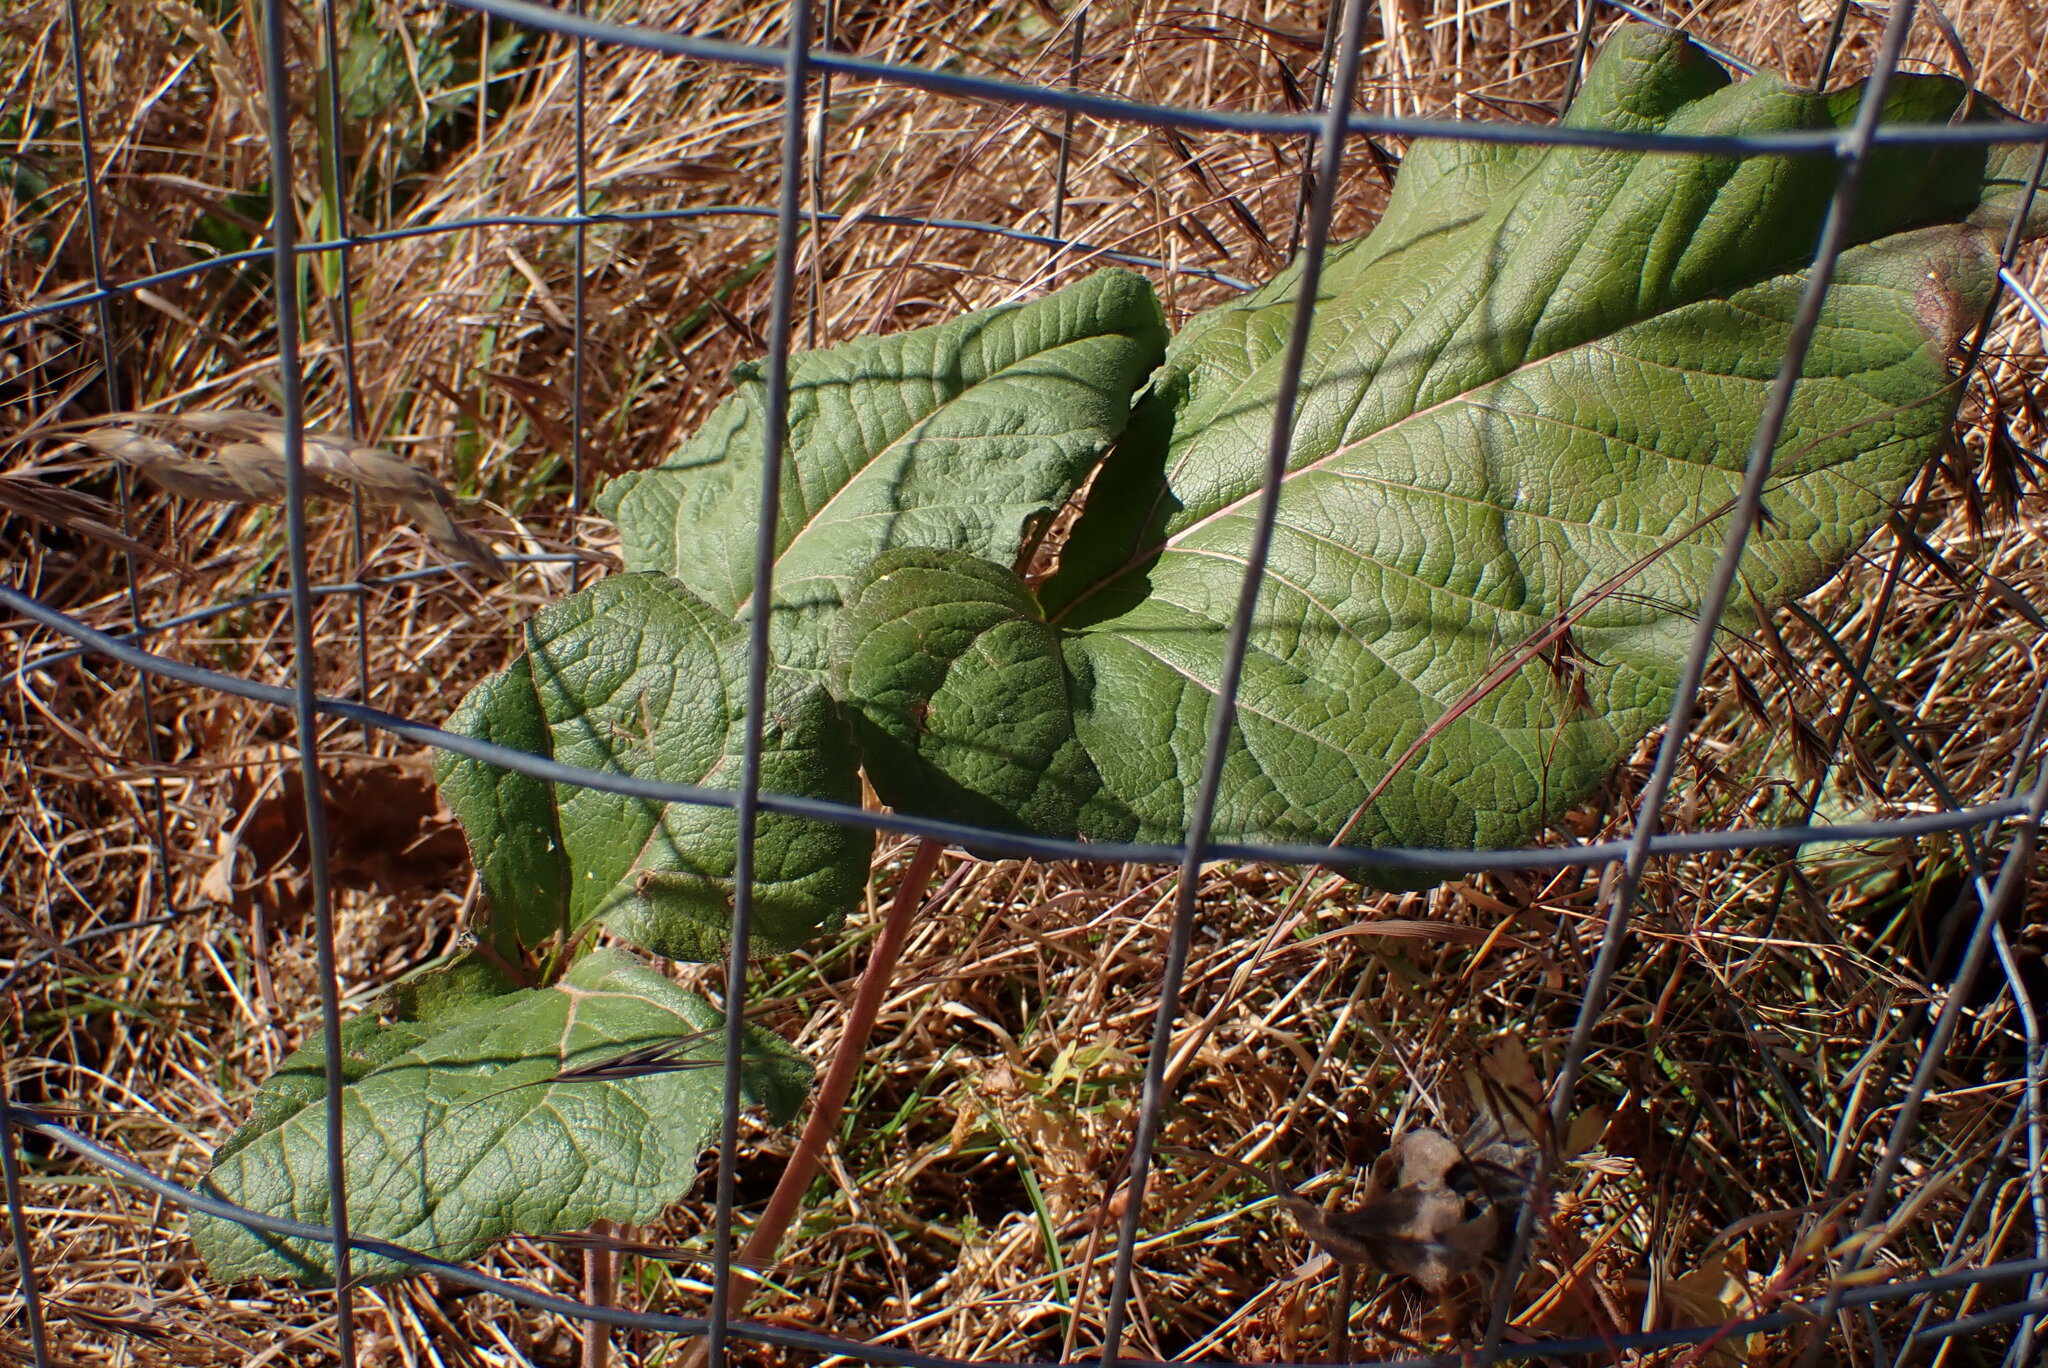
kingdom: Plantae
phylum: Tracheophyta
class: Magnoliopsida
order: Asterales
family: Asteraceae
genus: Balsamorhiza
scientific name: Balsamorhiza deltoidea
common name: Deltoid balsamroot
